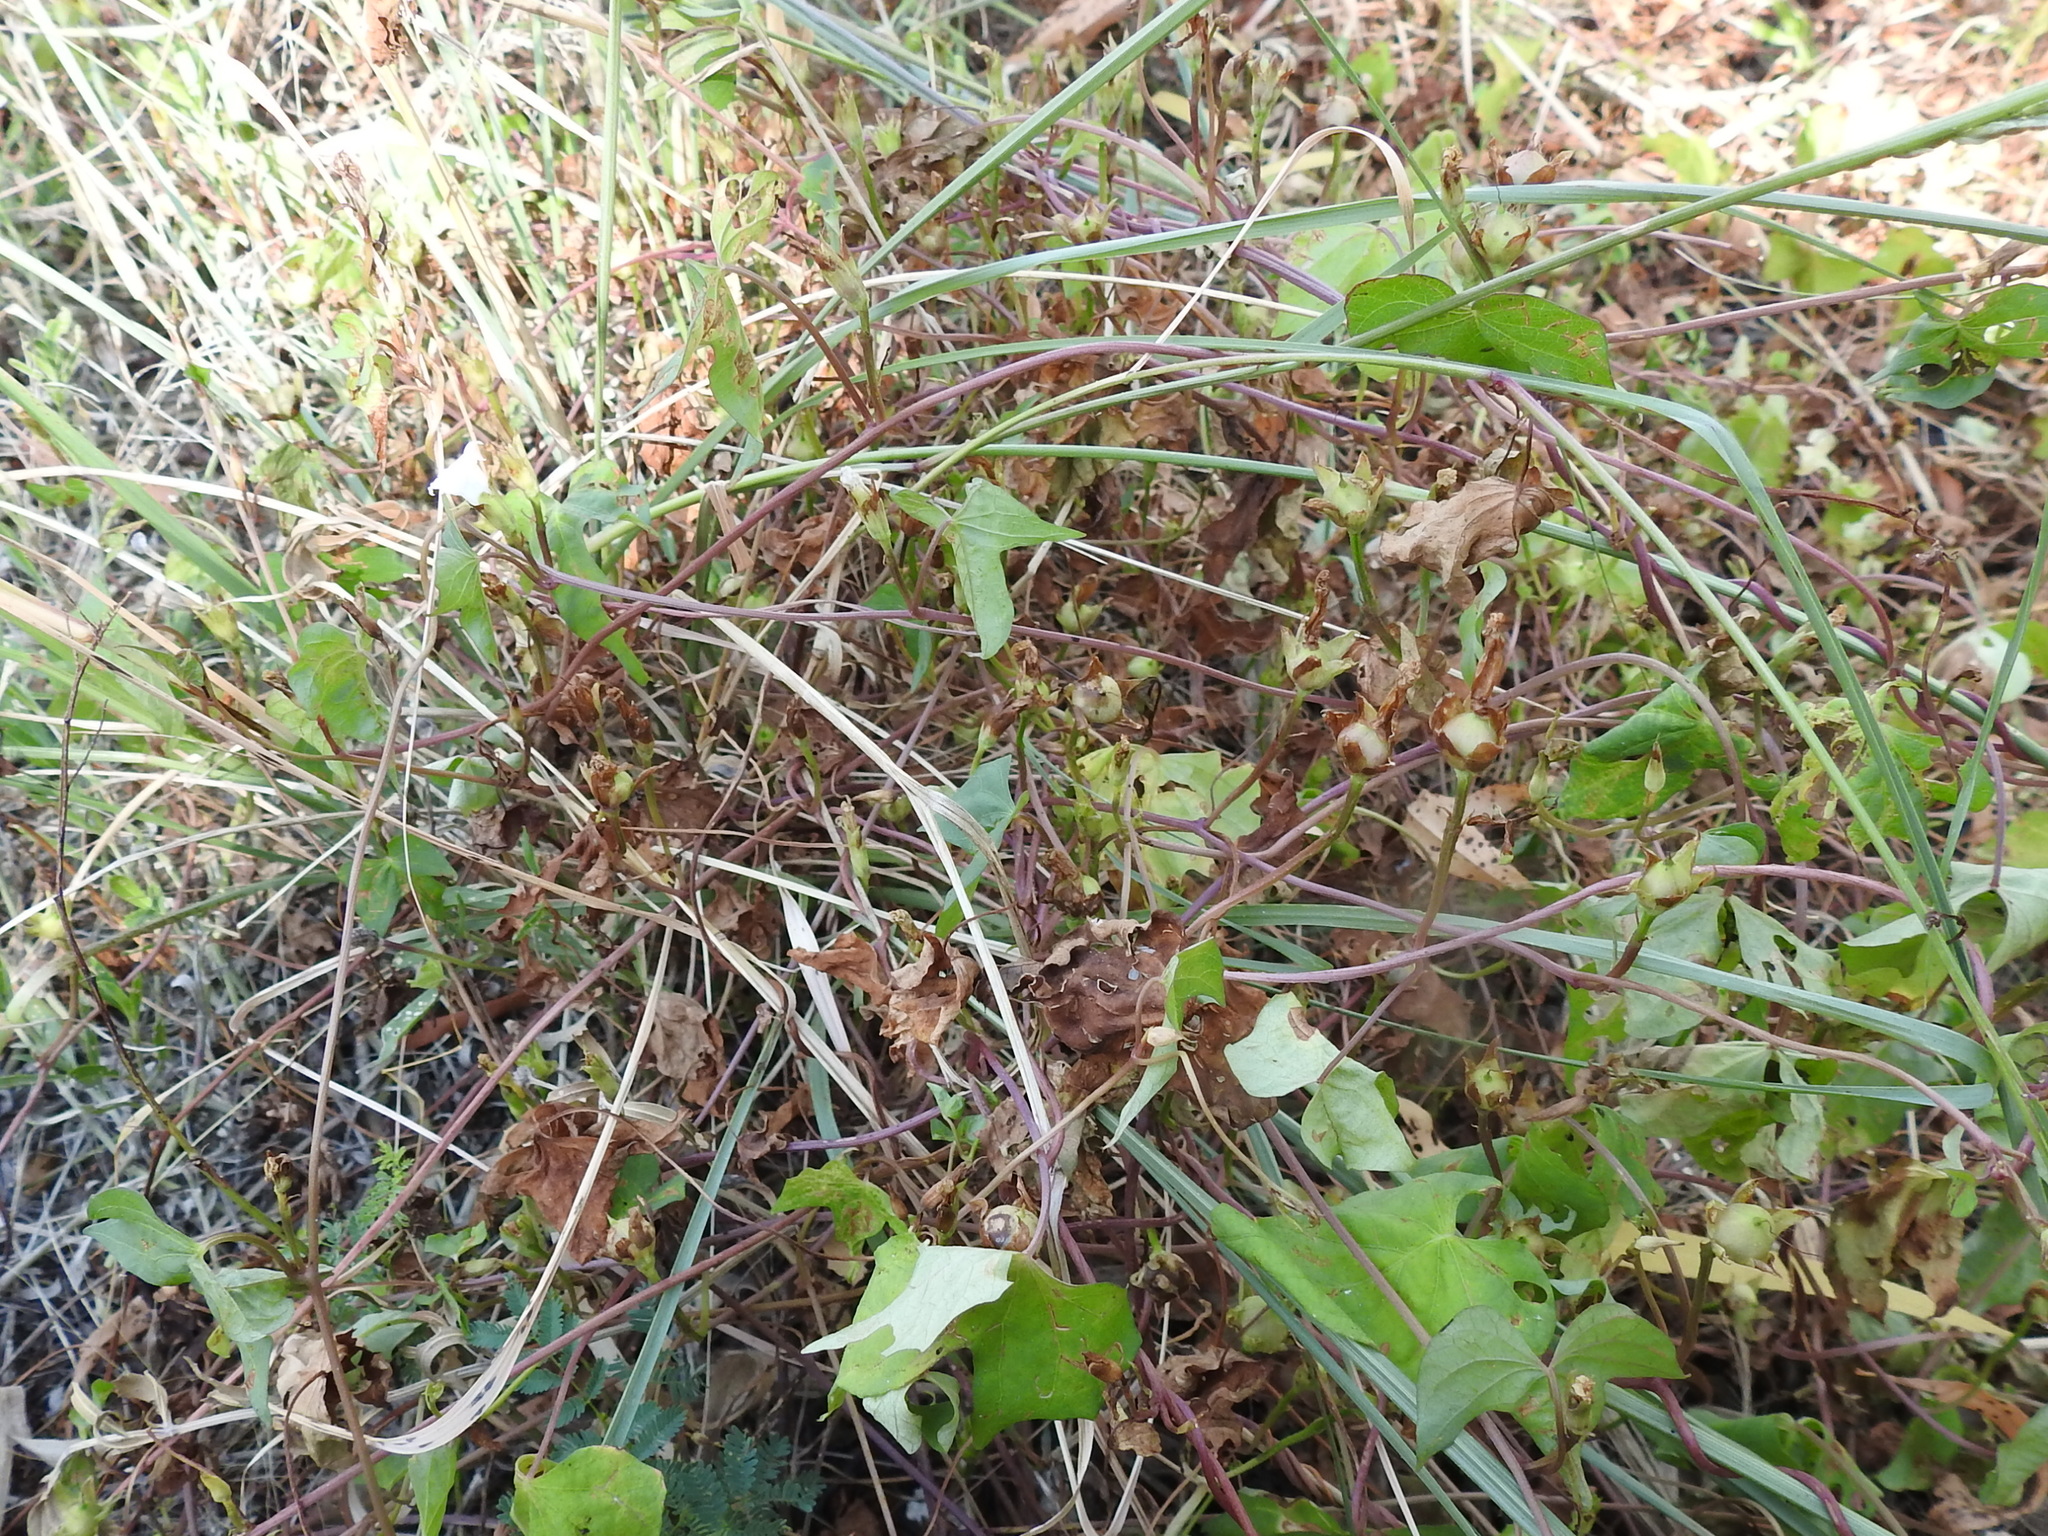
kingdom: Plantae
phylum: Tracheophyta
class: Magnoliopsida
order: Solanales
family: Convolvulaceae
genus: Ipomoea
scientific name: Ipomoea lacunosa
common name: White morning-glory
